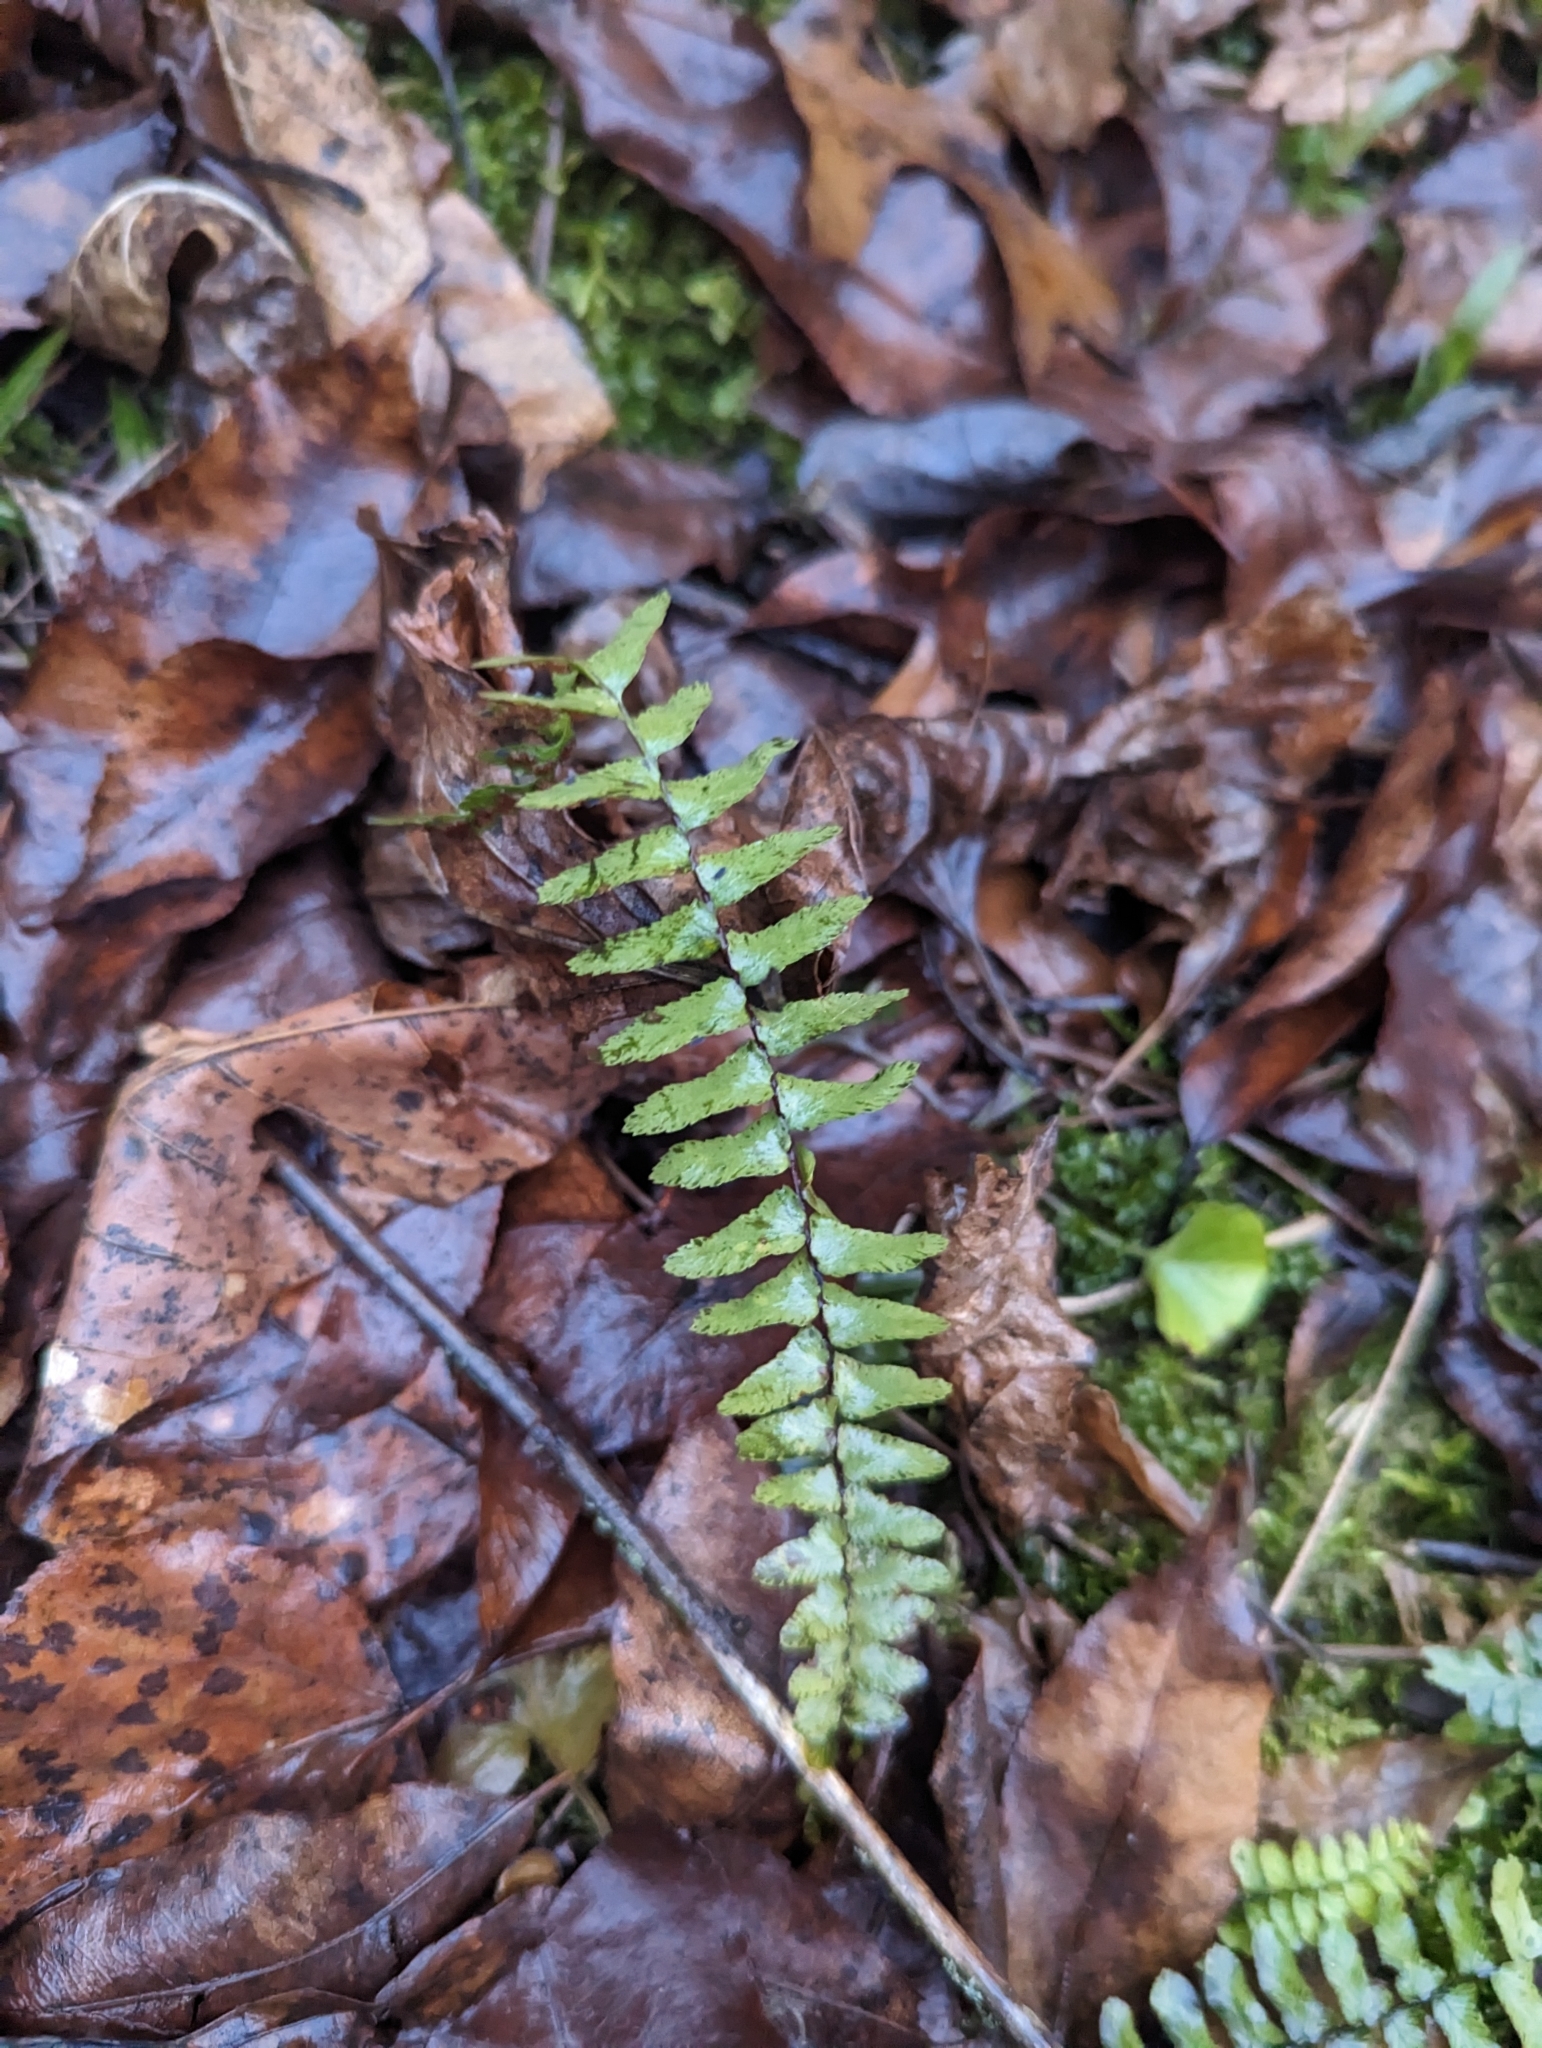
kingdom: Plantae
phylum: Tracheophyta
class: Polypodiopsida
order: Polypodiales
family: Aspleniaceae
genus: Asplenium
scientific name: Asplenium platyneuron
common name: Ebony spleenwort
